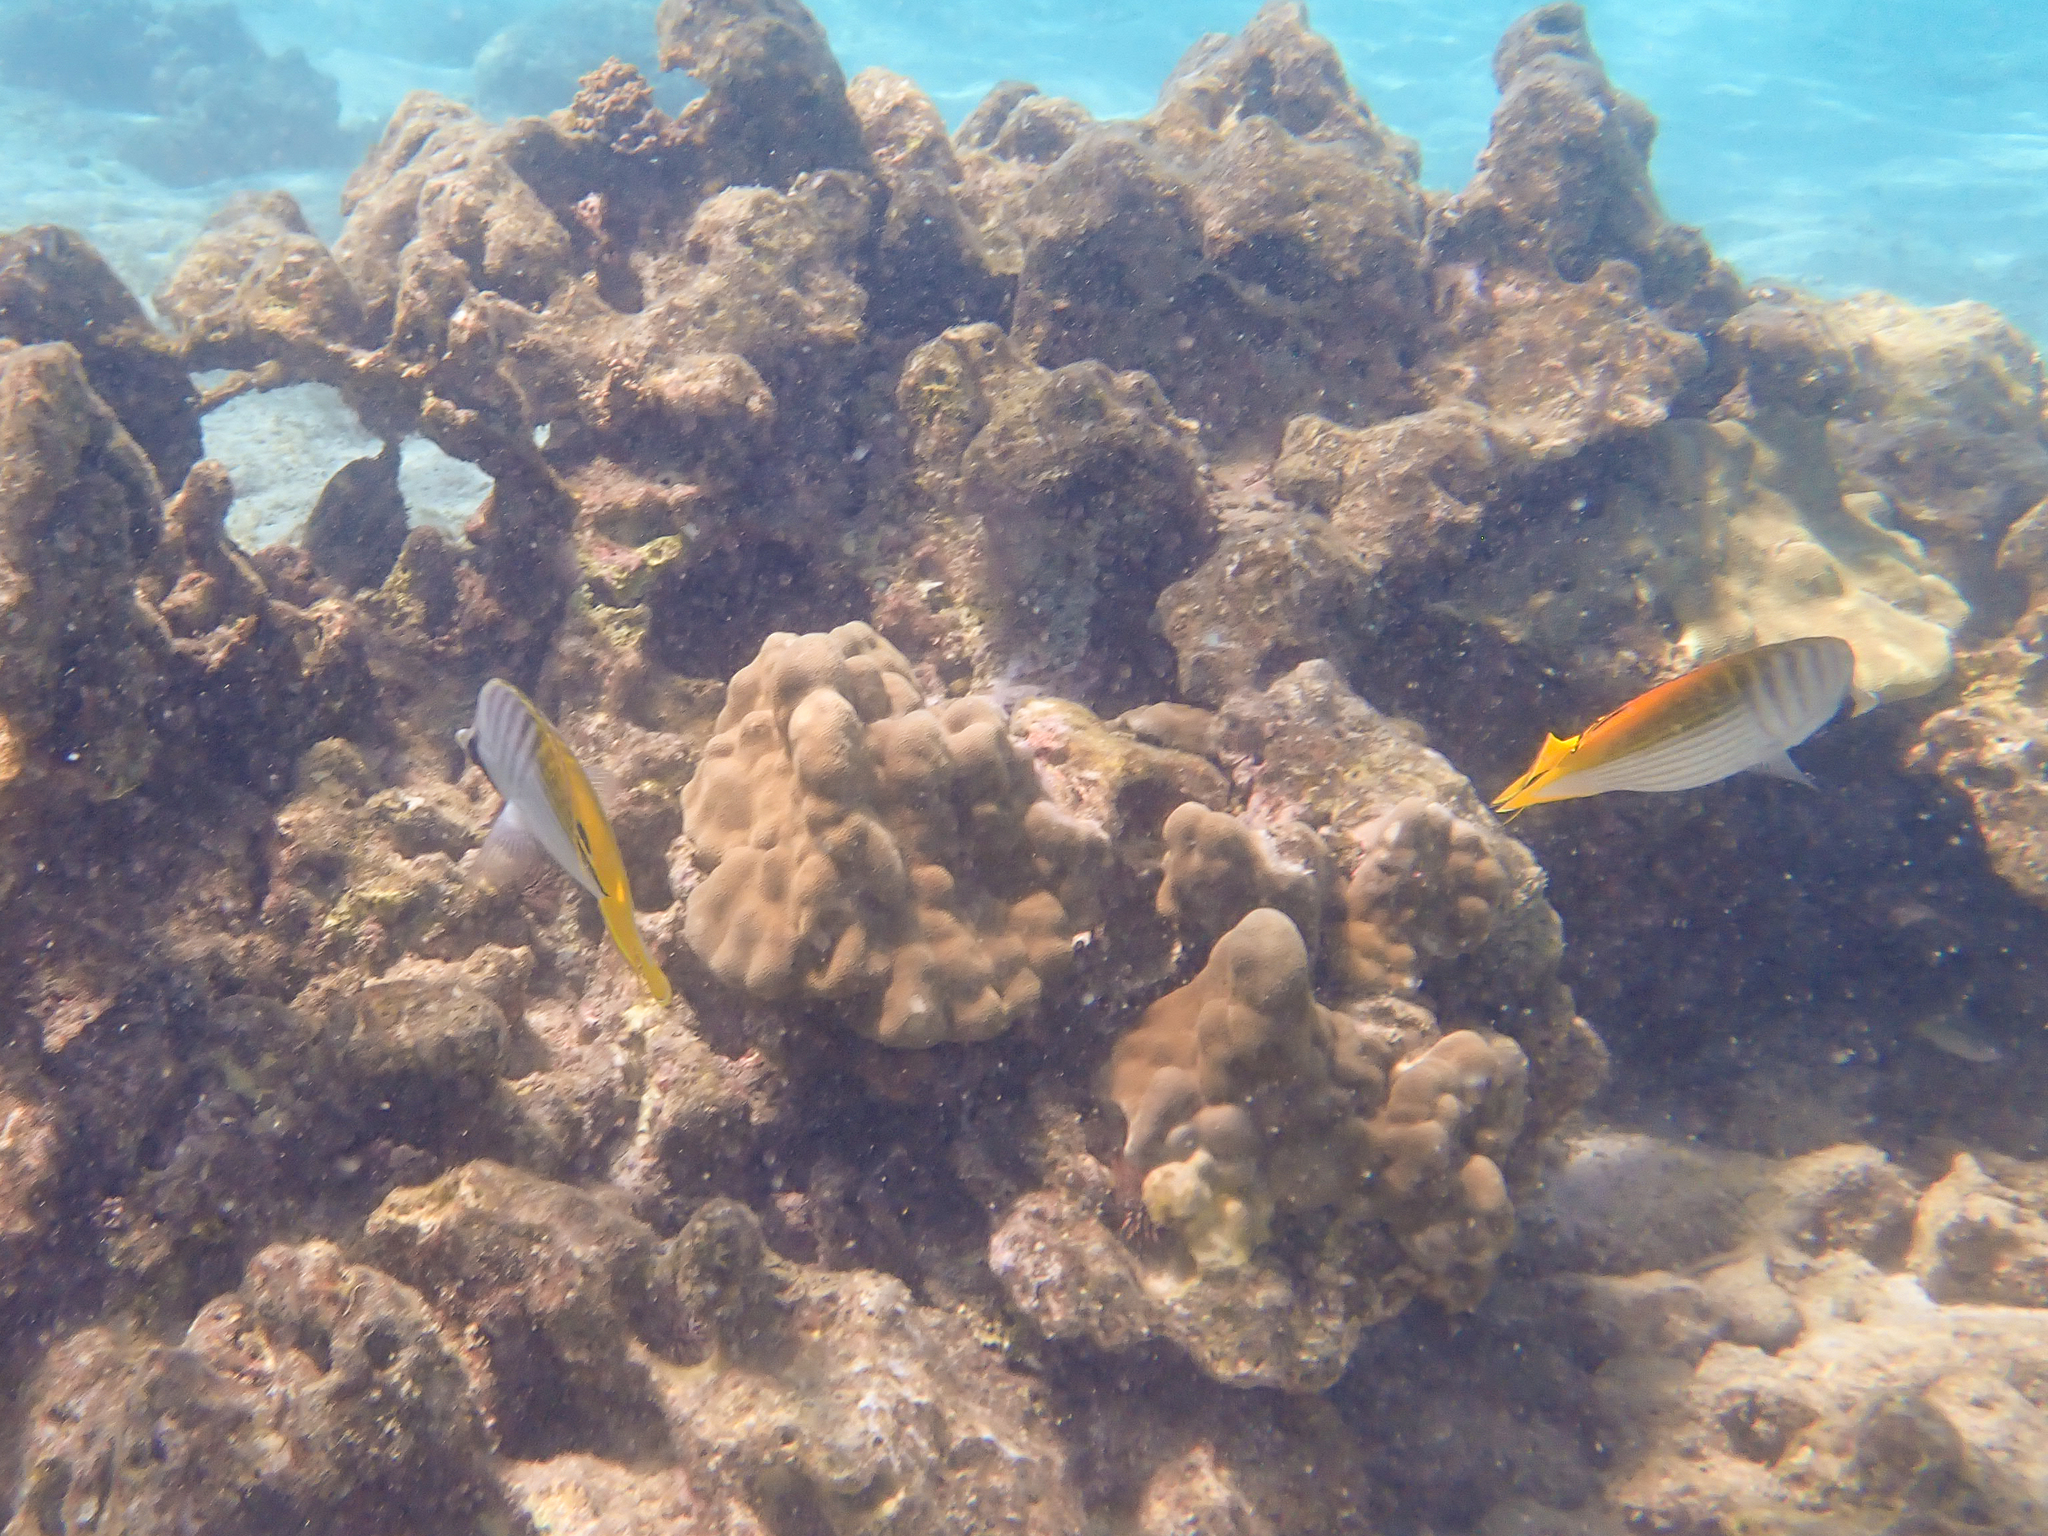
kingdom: Animalia
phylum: Chordata
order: Perciformes
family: Chaetodontidae
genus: Chaetodon
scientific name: Chaetodon auriga
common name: Threadfin butterflyfish
